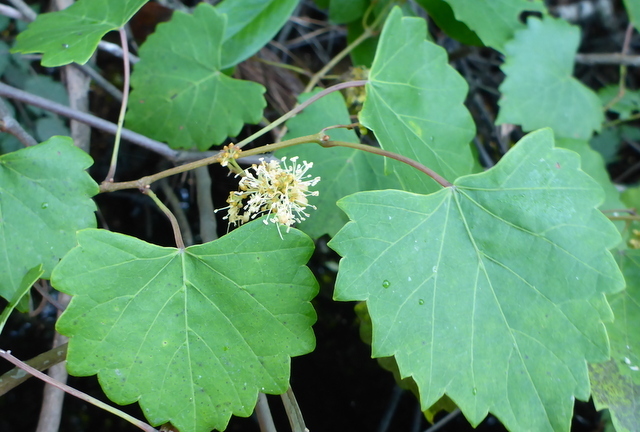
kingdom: Plantae
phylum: Tracheophyta
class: Magnoliopsida
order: Vitales
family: Vitaceae
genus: Vitis
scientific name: Vitis rotundifolia
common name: Muscadine grape
